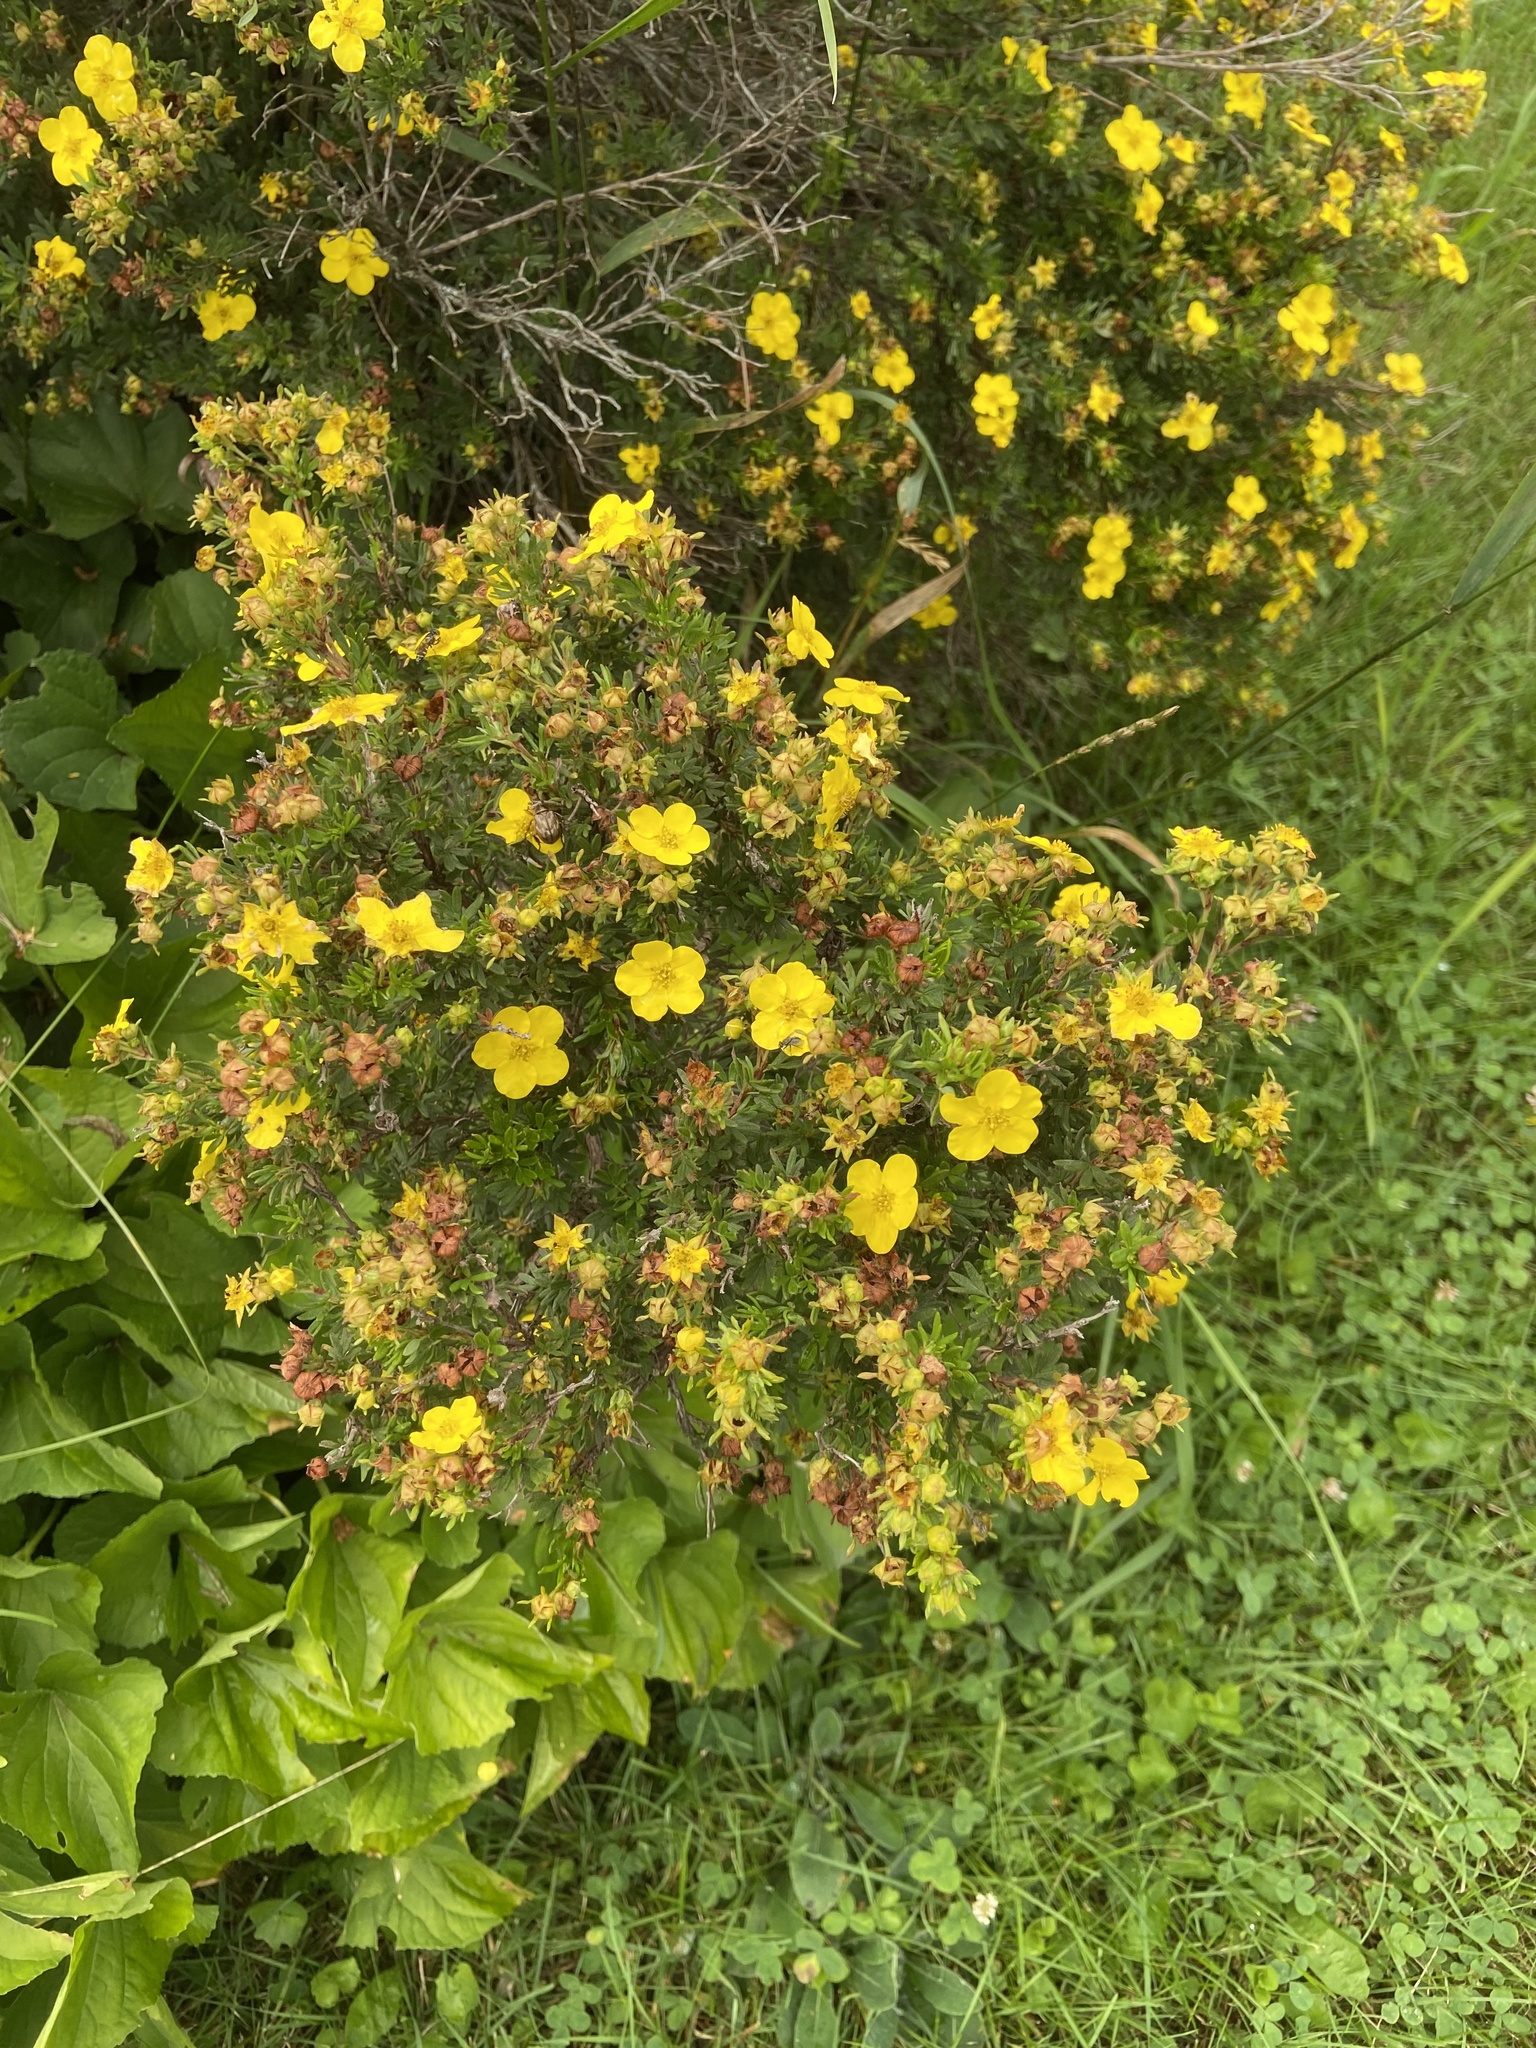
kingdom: Plantae
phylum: Tracheophyta
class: Magnoliopsida
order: Rosales
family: Rosaceae
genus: Dasiphora
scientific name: Dasiphora fruticosa
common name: Shrubby cinquefoil
